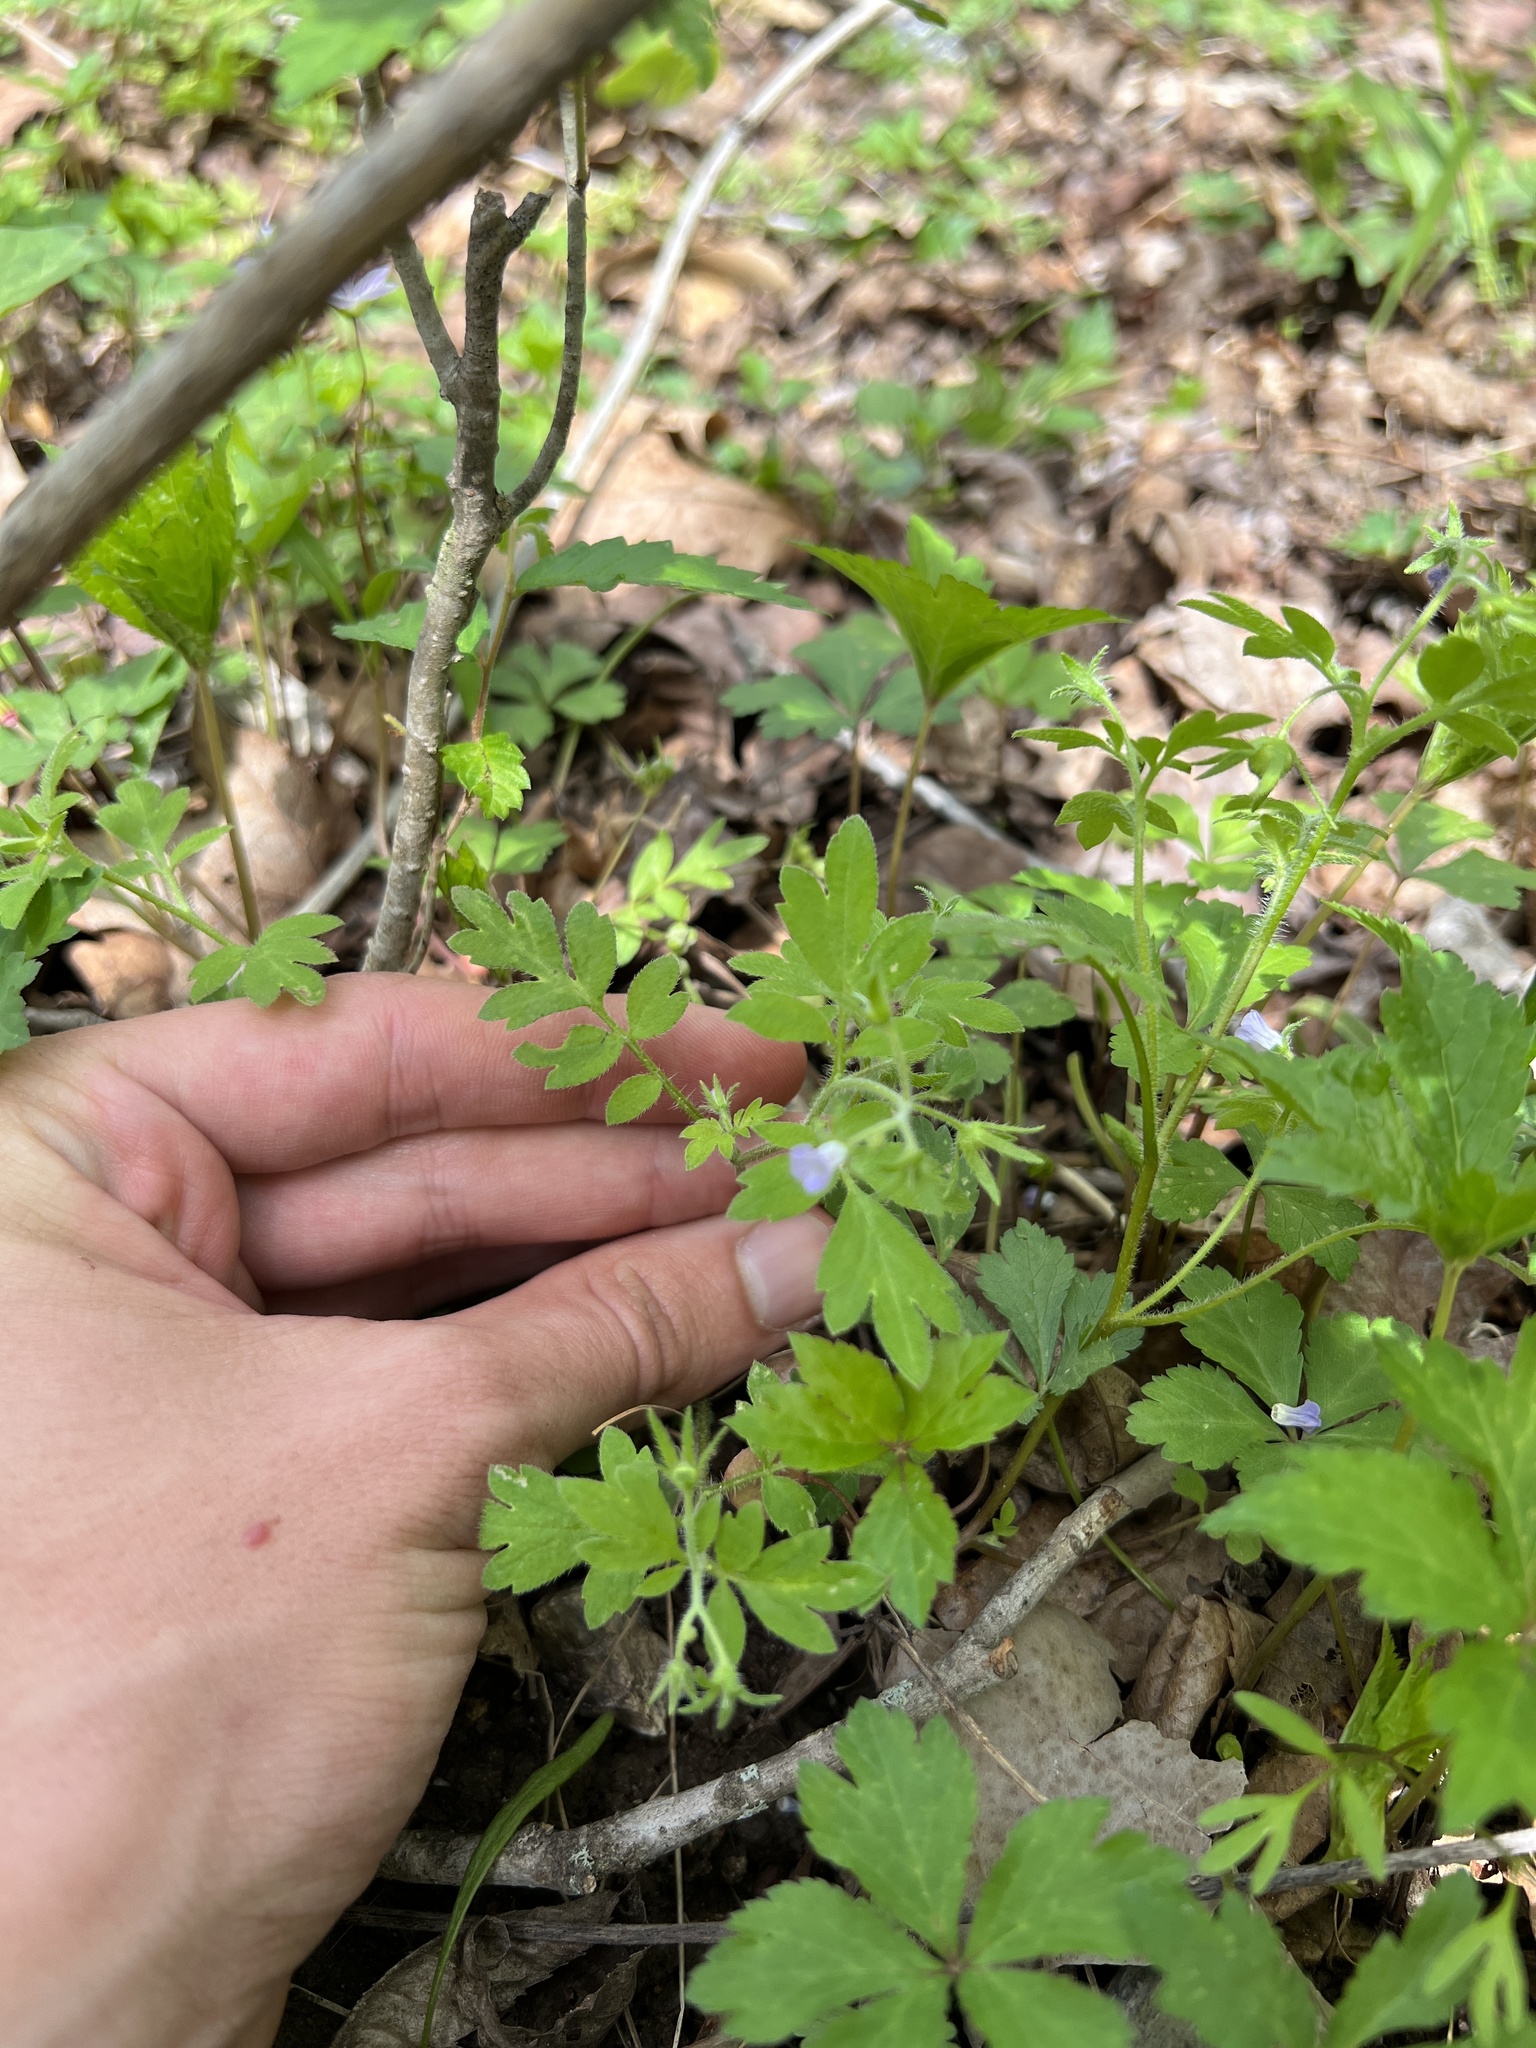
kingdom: Plantae
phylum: Tracheophyta
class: Magnoliopsida
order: Boraginales
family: Hydrophyllaceae
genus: Phacelia
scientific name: Phacelia covillei
